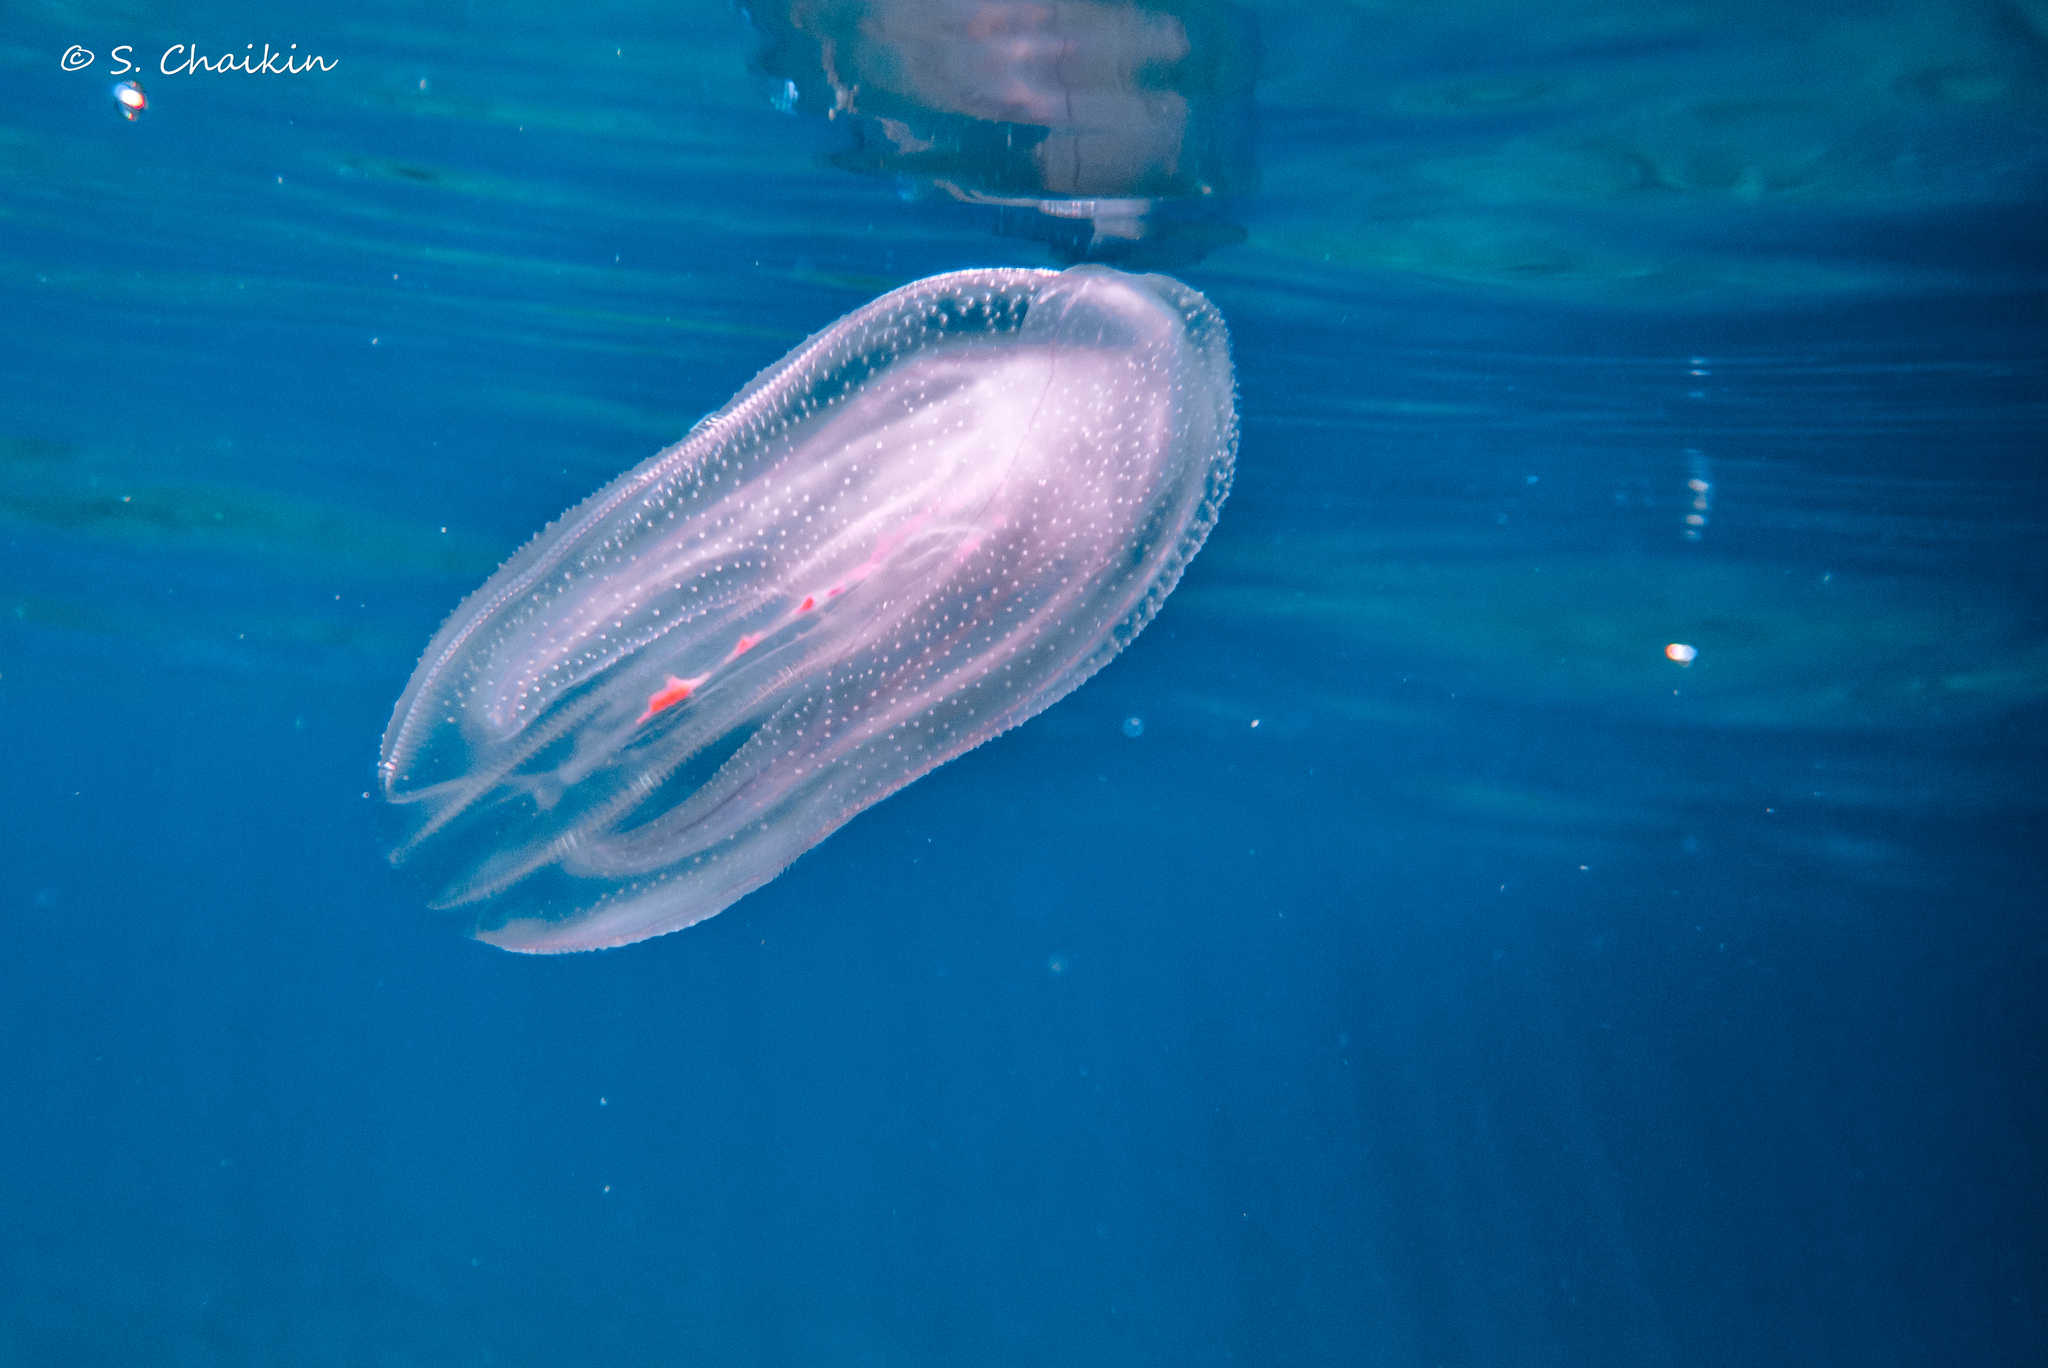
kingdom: Animalia
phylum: Ctenophora
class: Tentaculata
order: Lobata
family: Bolinopsidae
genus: Mnemiopsis
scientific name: Mnemiopsis leidyi
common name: American comb jelly
